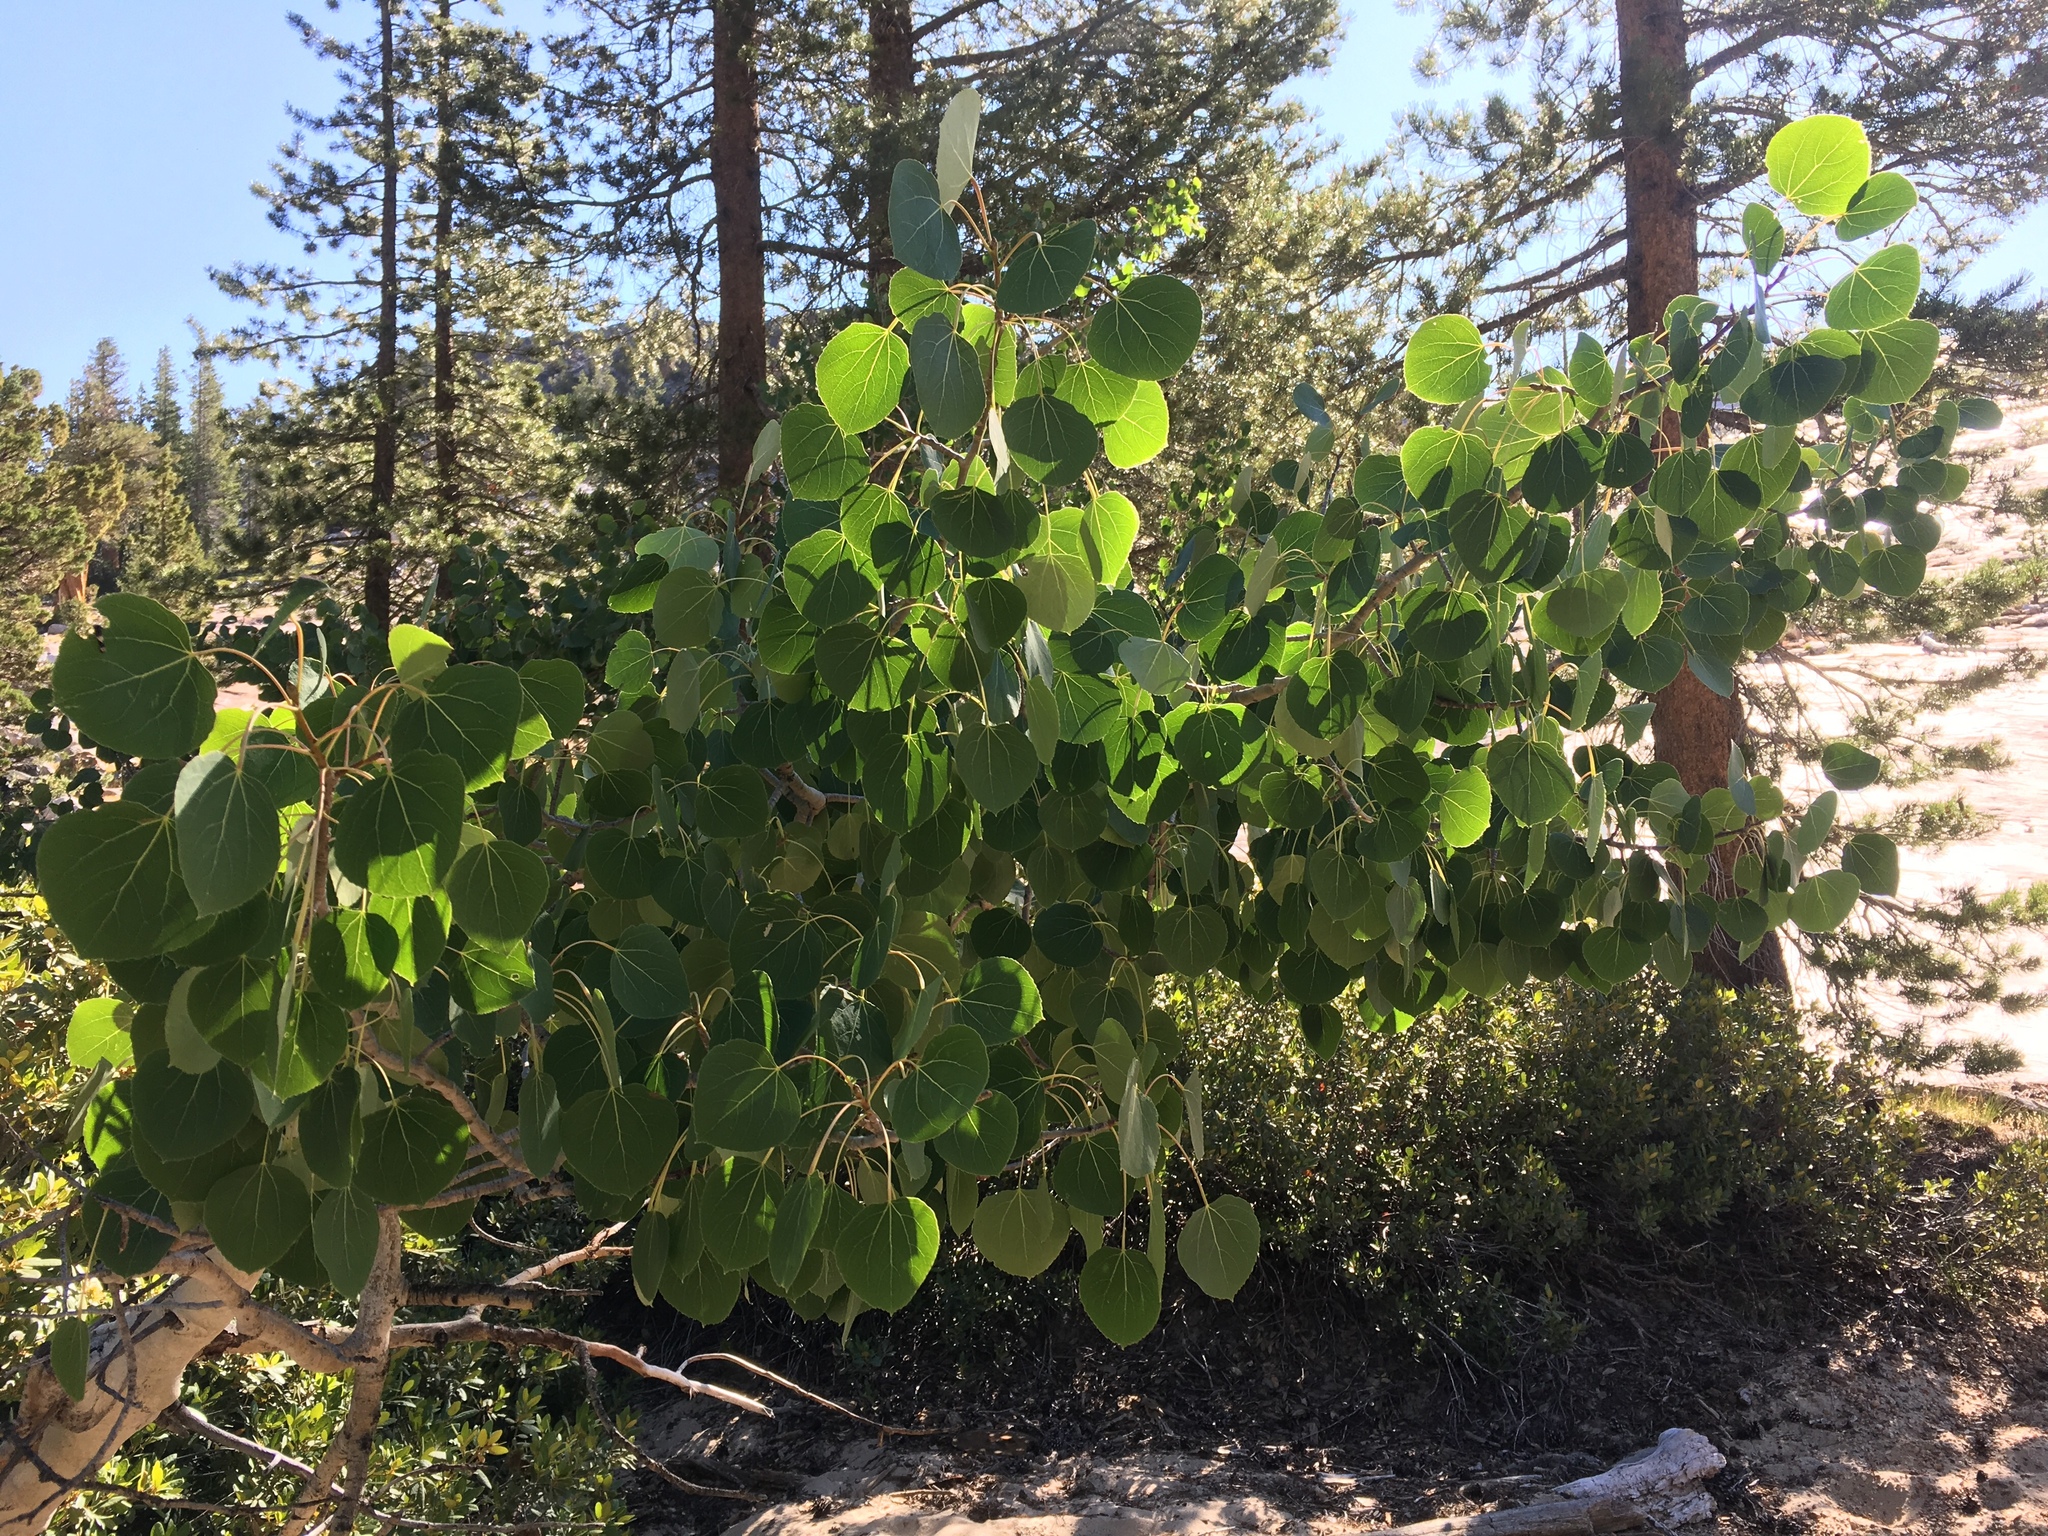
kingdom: Plantae
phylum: Tracheophyta
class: Magnoliopsida
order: Malpighiales
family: Salicaceae
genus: Populus
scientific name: Populus tremuloides
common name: Quaking aspen
